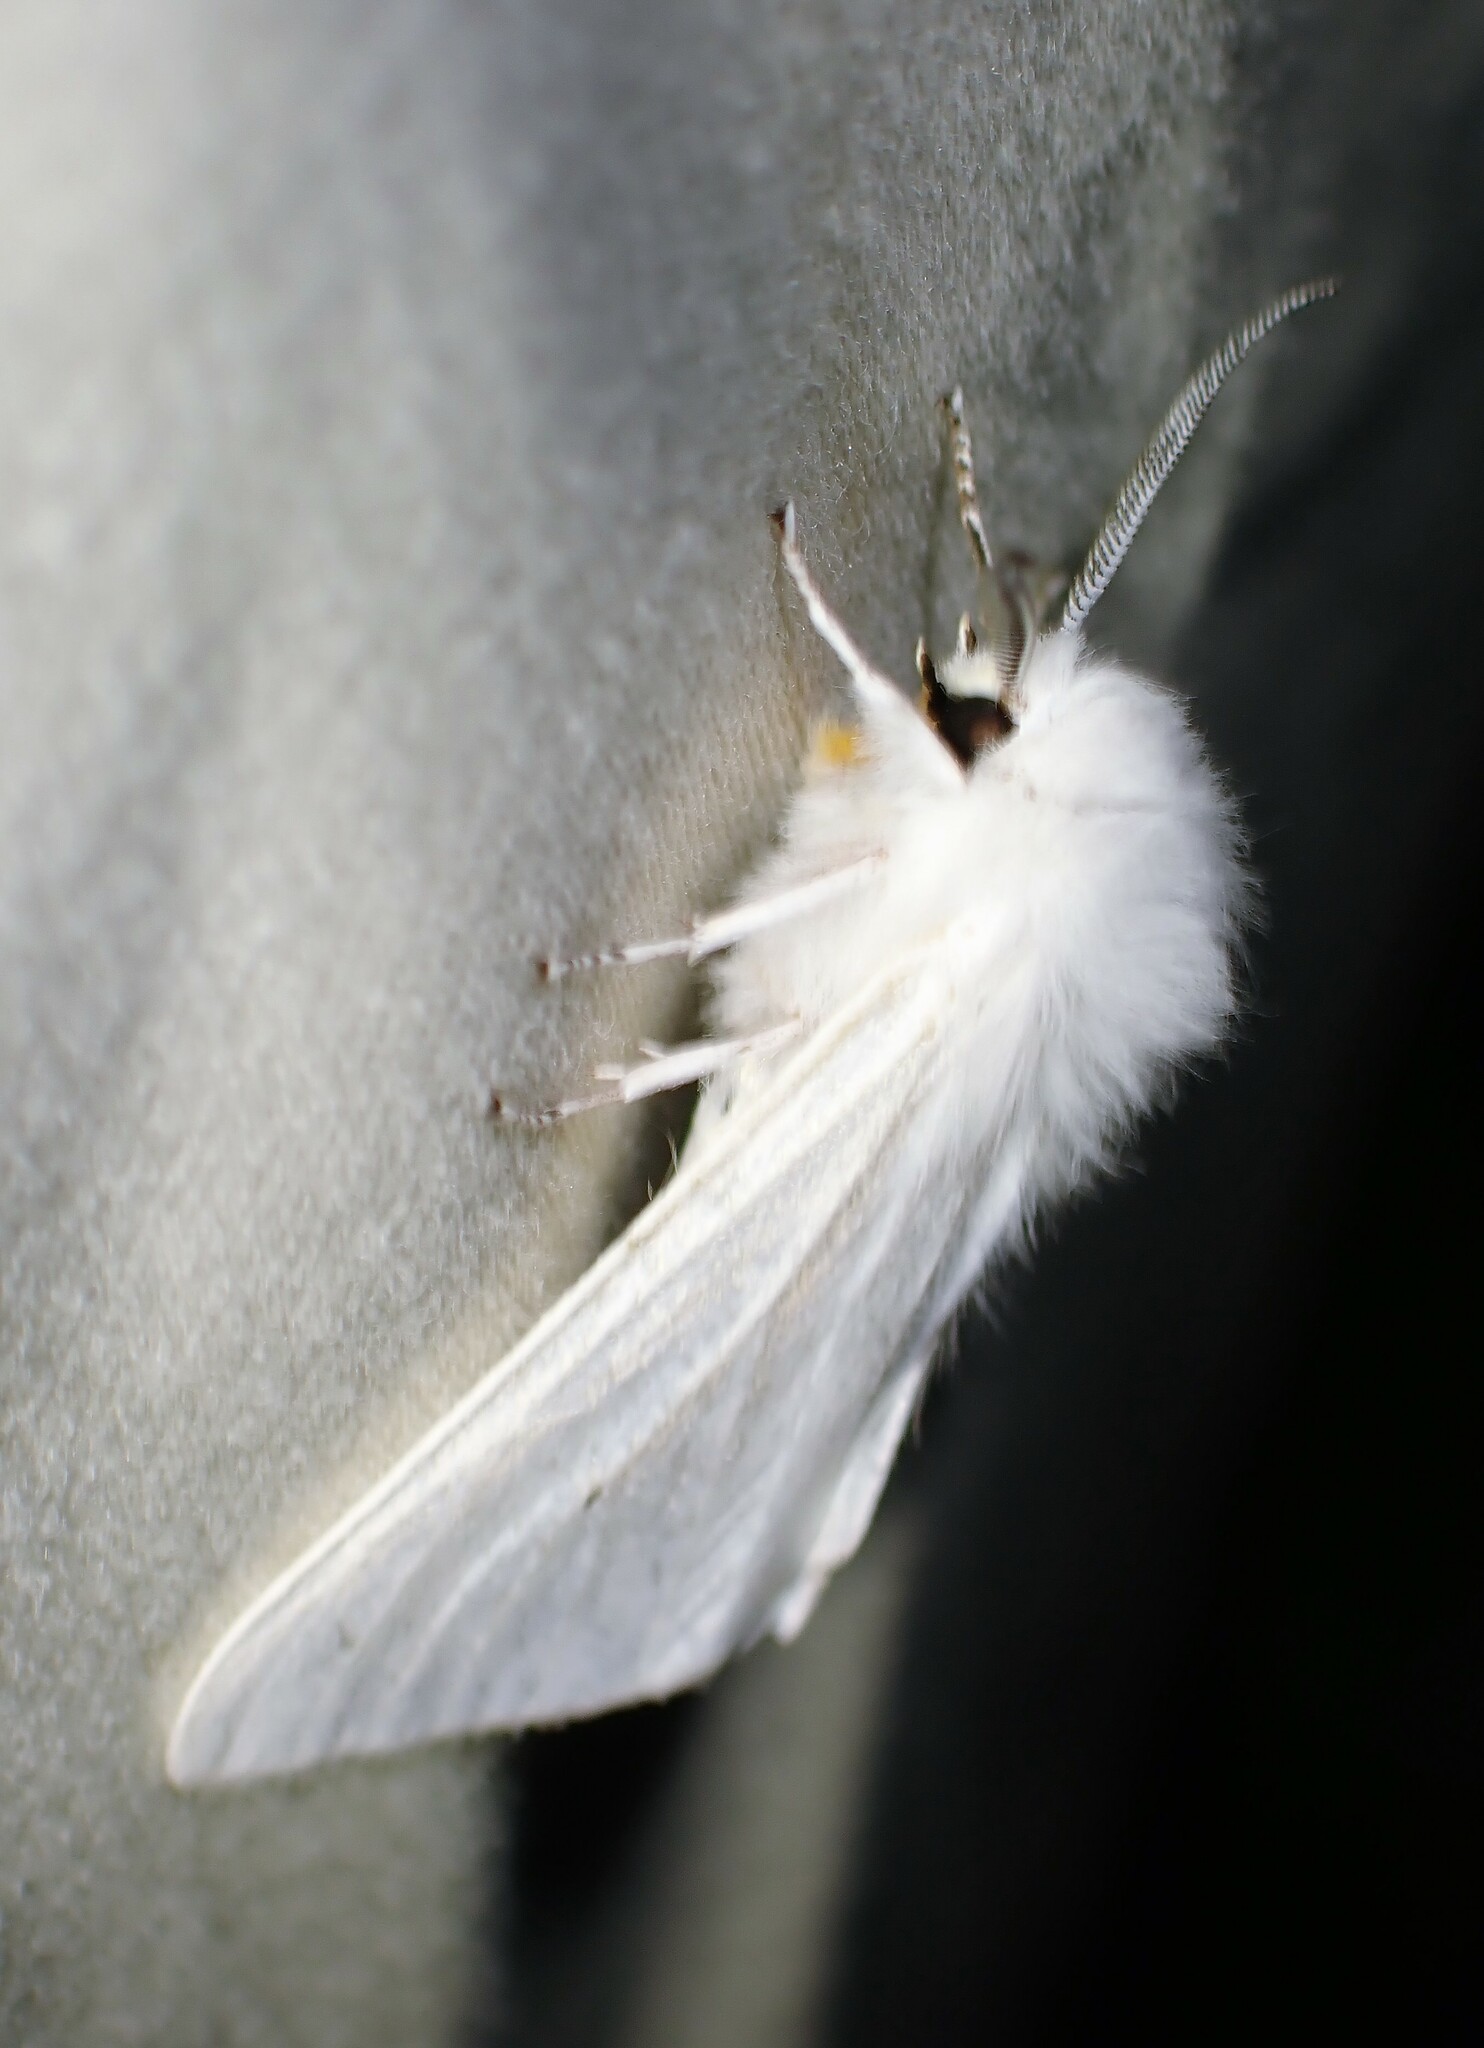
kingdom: Animalia
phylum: Arthropoda
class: Insecta
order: Lepidoptera
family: Erebidae
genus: Spilosoma
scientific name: Spilosoma virginica
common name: Virginia tiger moth
